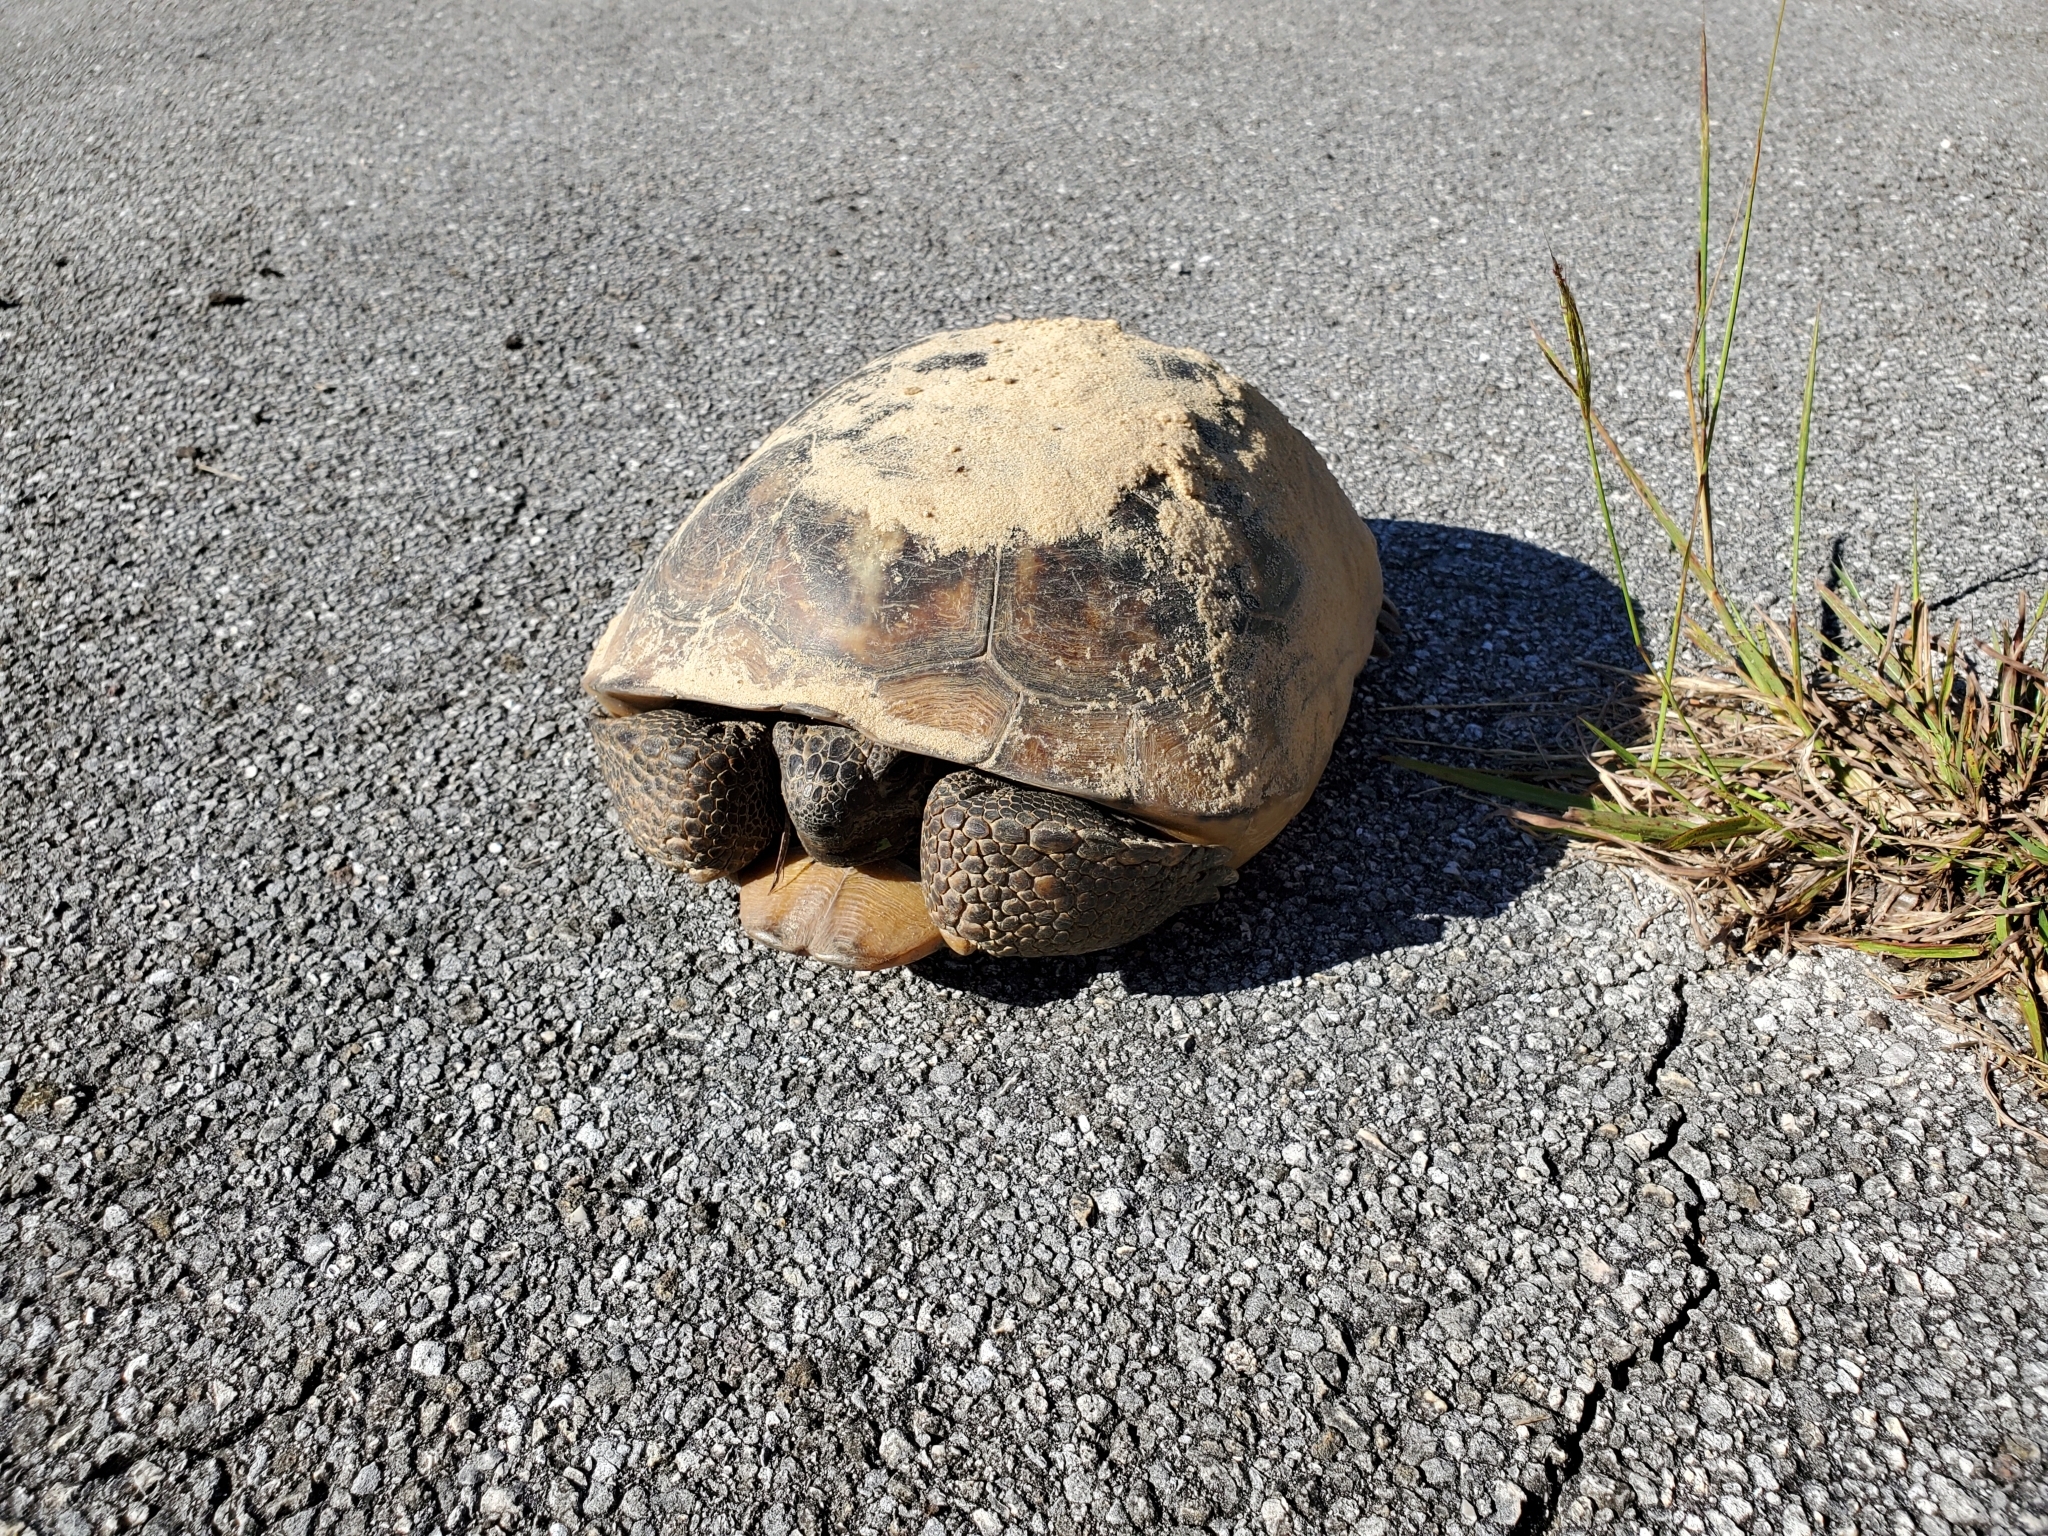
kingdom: Animalia
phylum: Chordata
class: Testudines
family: Testudinidae
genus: Gopherus
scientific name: Gopherus polyphemus
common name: Florida gopher tortoise
